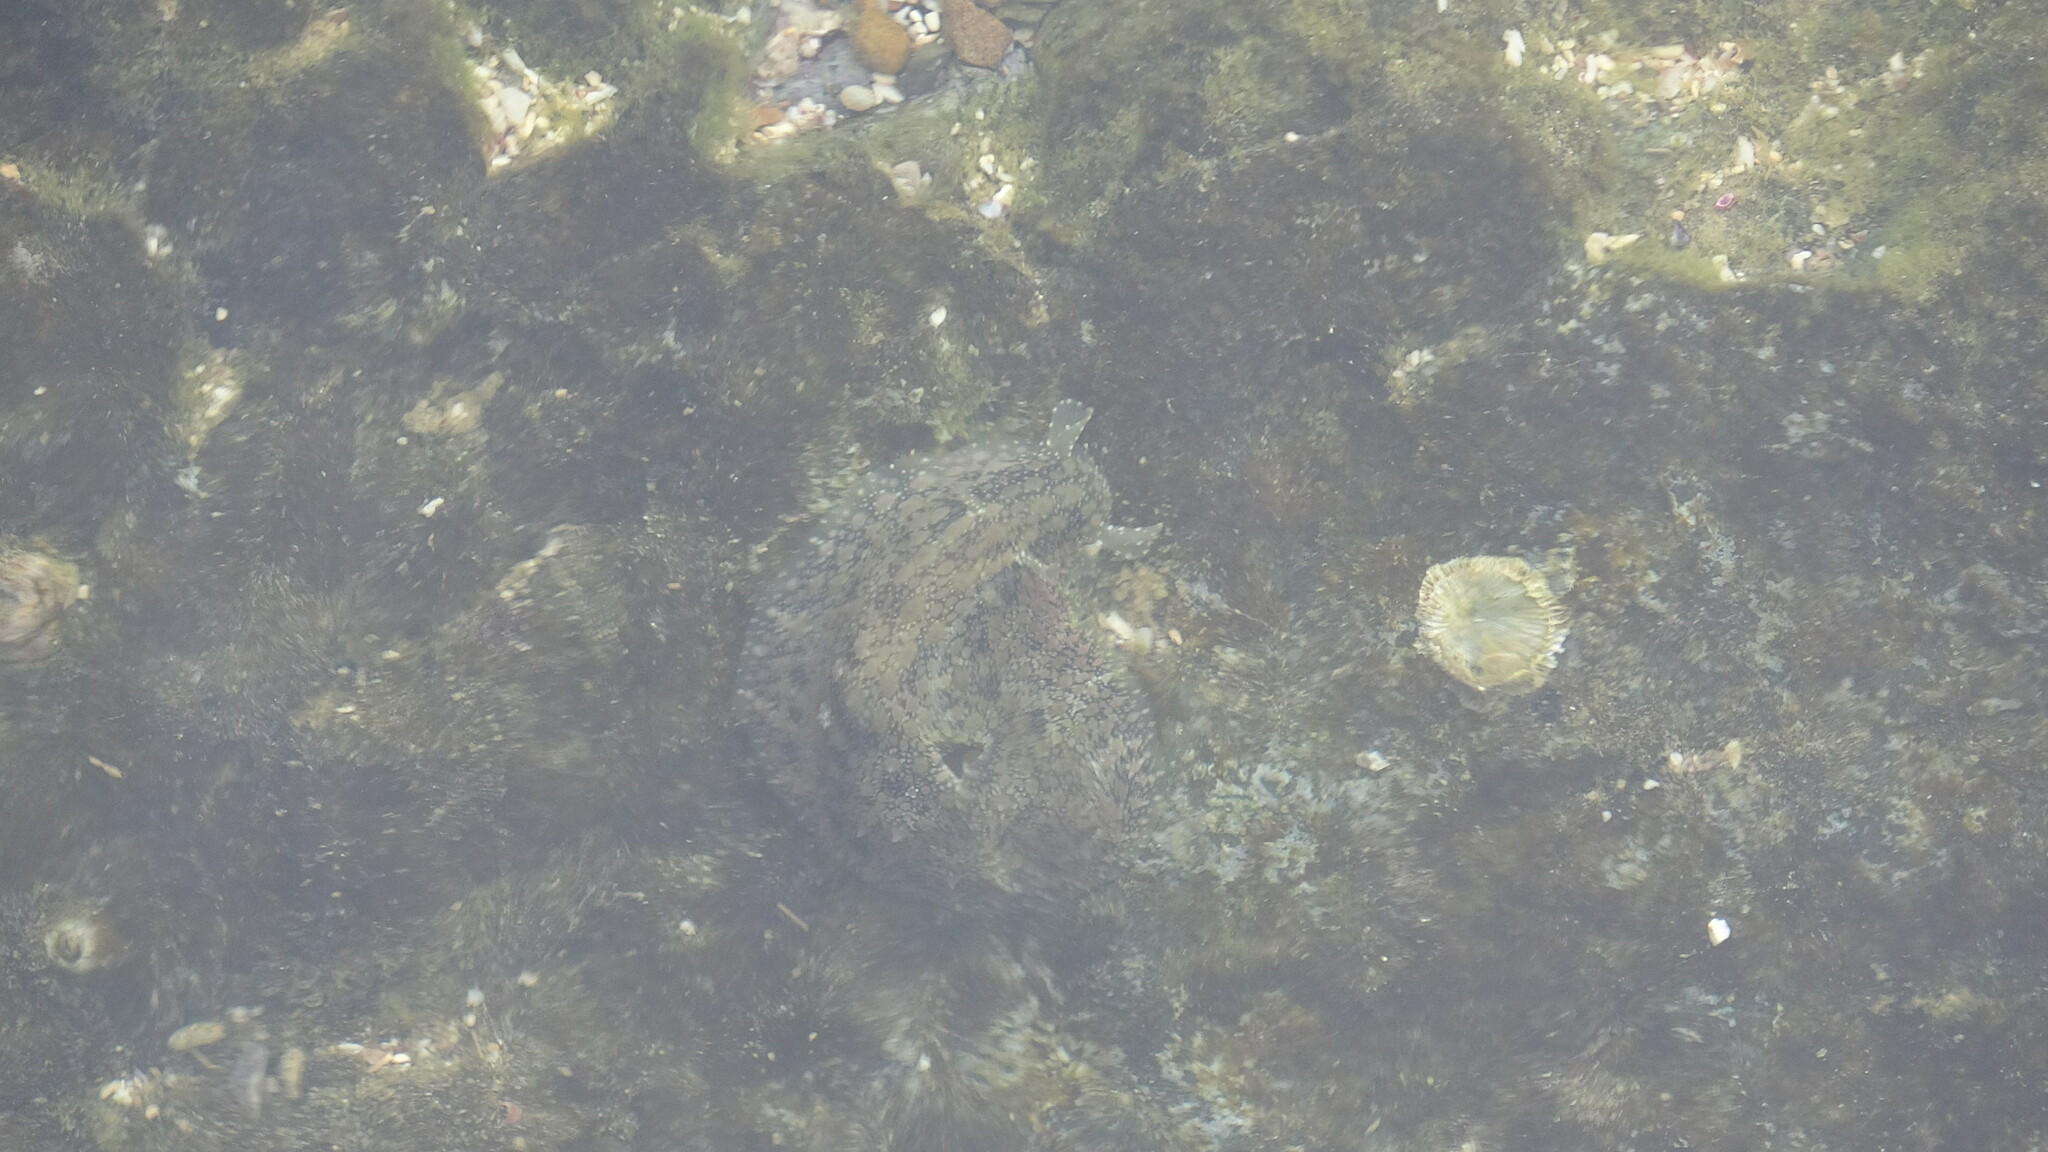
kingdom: Animalia
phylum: Mollusca
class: Gastropoda
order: Aplysiida
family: Aplysiidae
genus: Dolabrifera
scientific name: Dolabrifera nicaraguana
